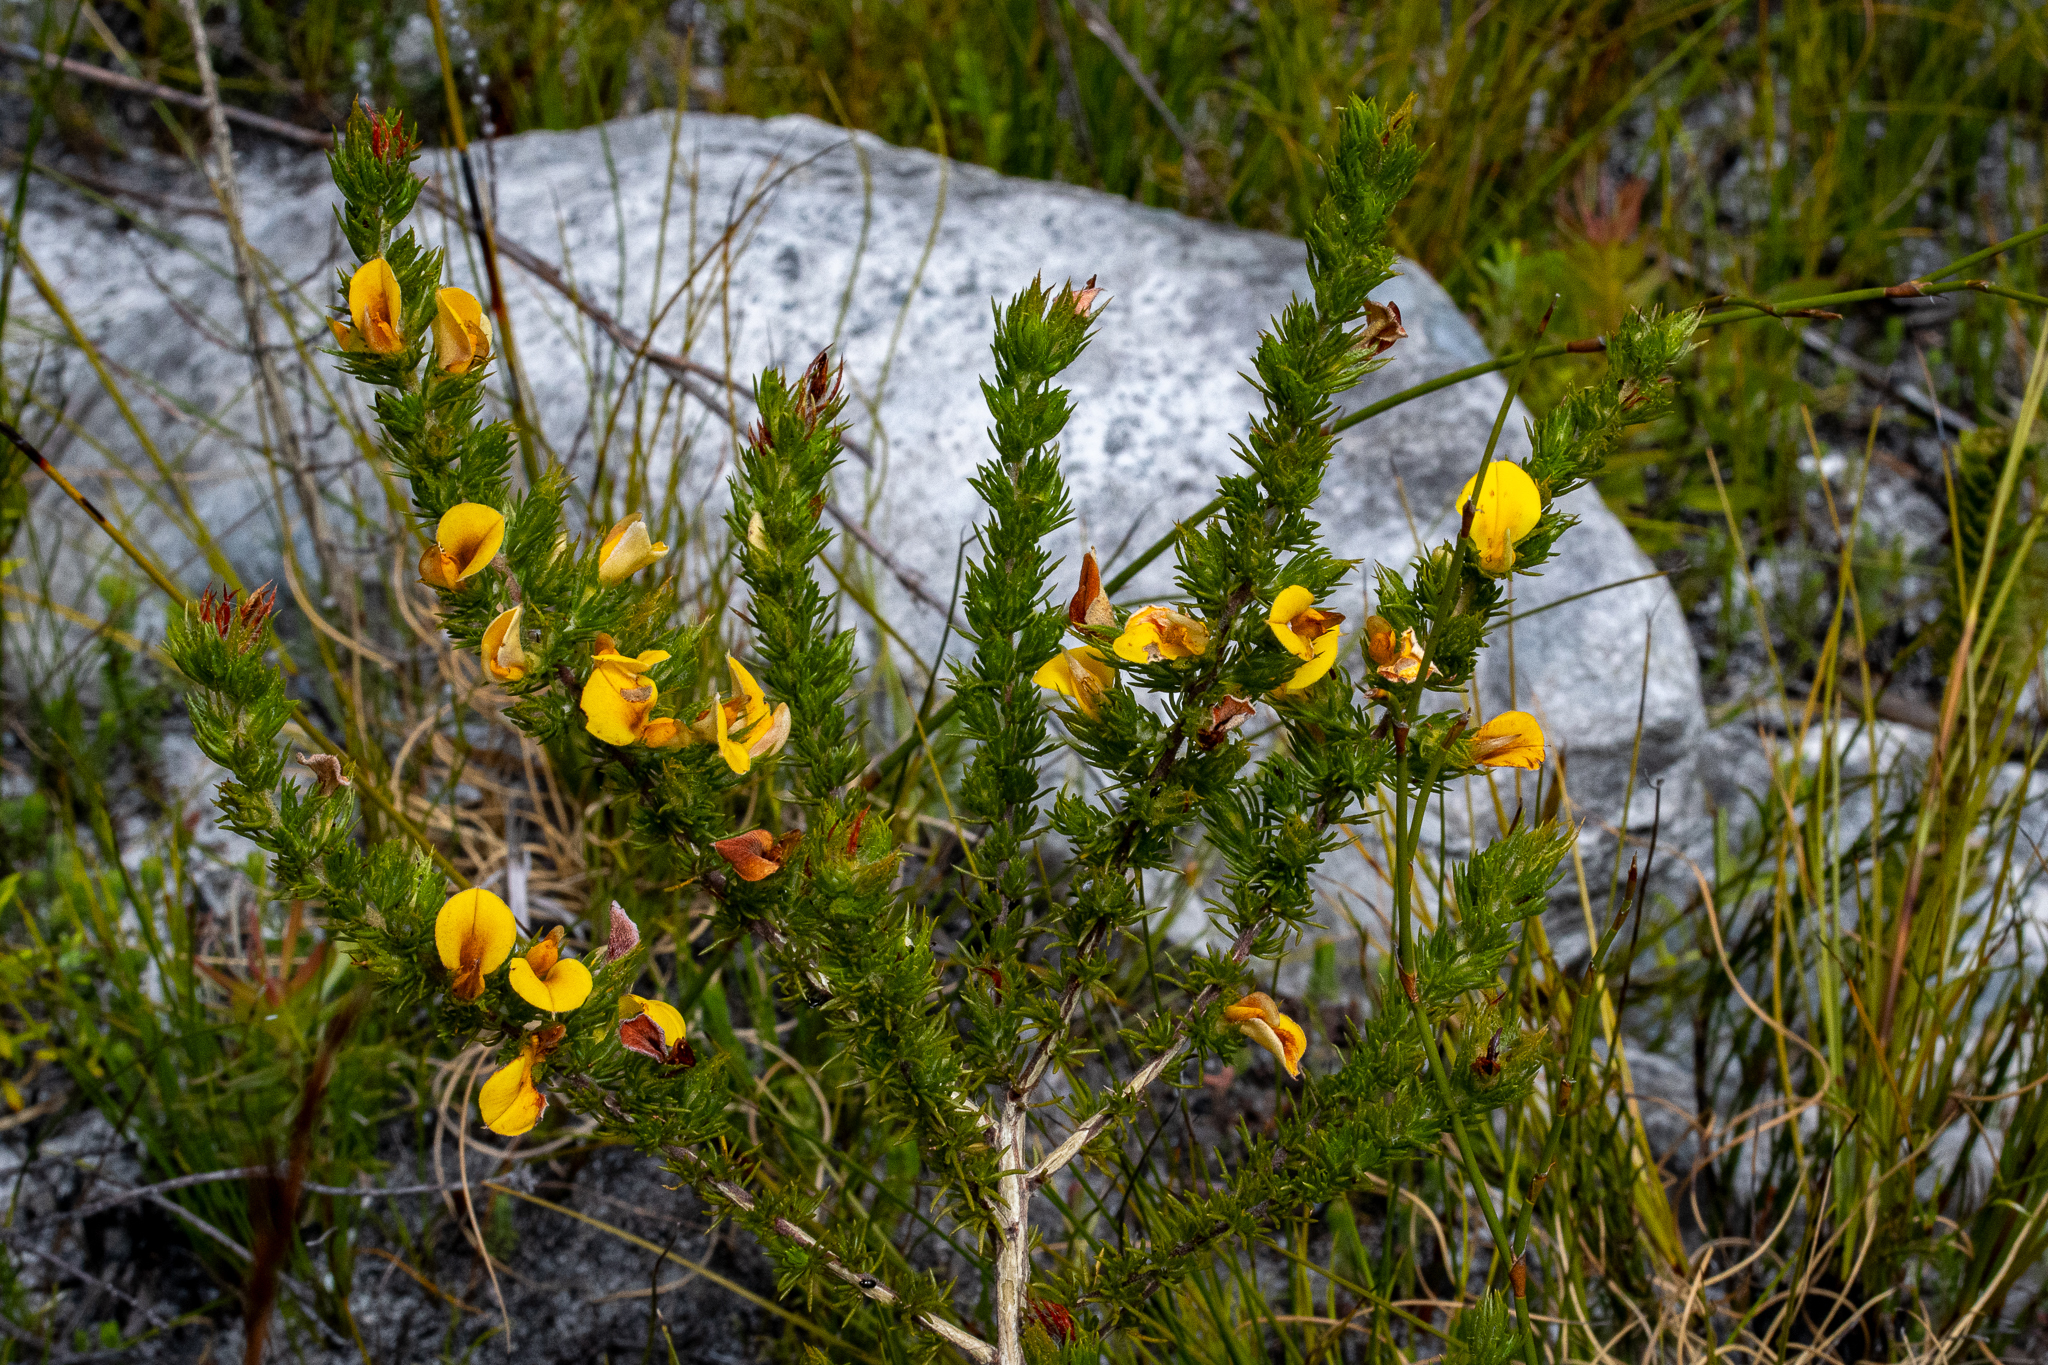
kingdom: Plantae
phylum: Tracheophyta
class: Magnoliopsida
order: Fabales
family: Fabaceae
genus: Aspalathus
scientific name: Aspalathus ciliaris
